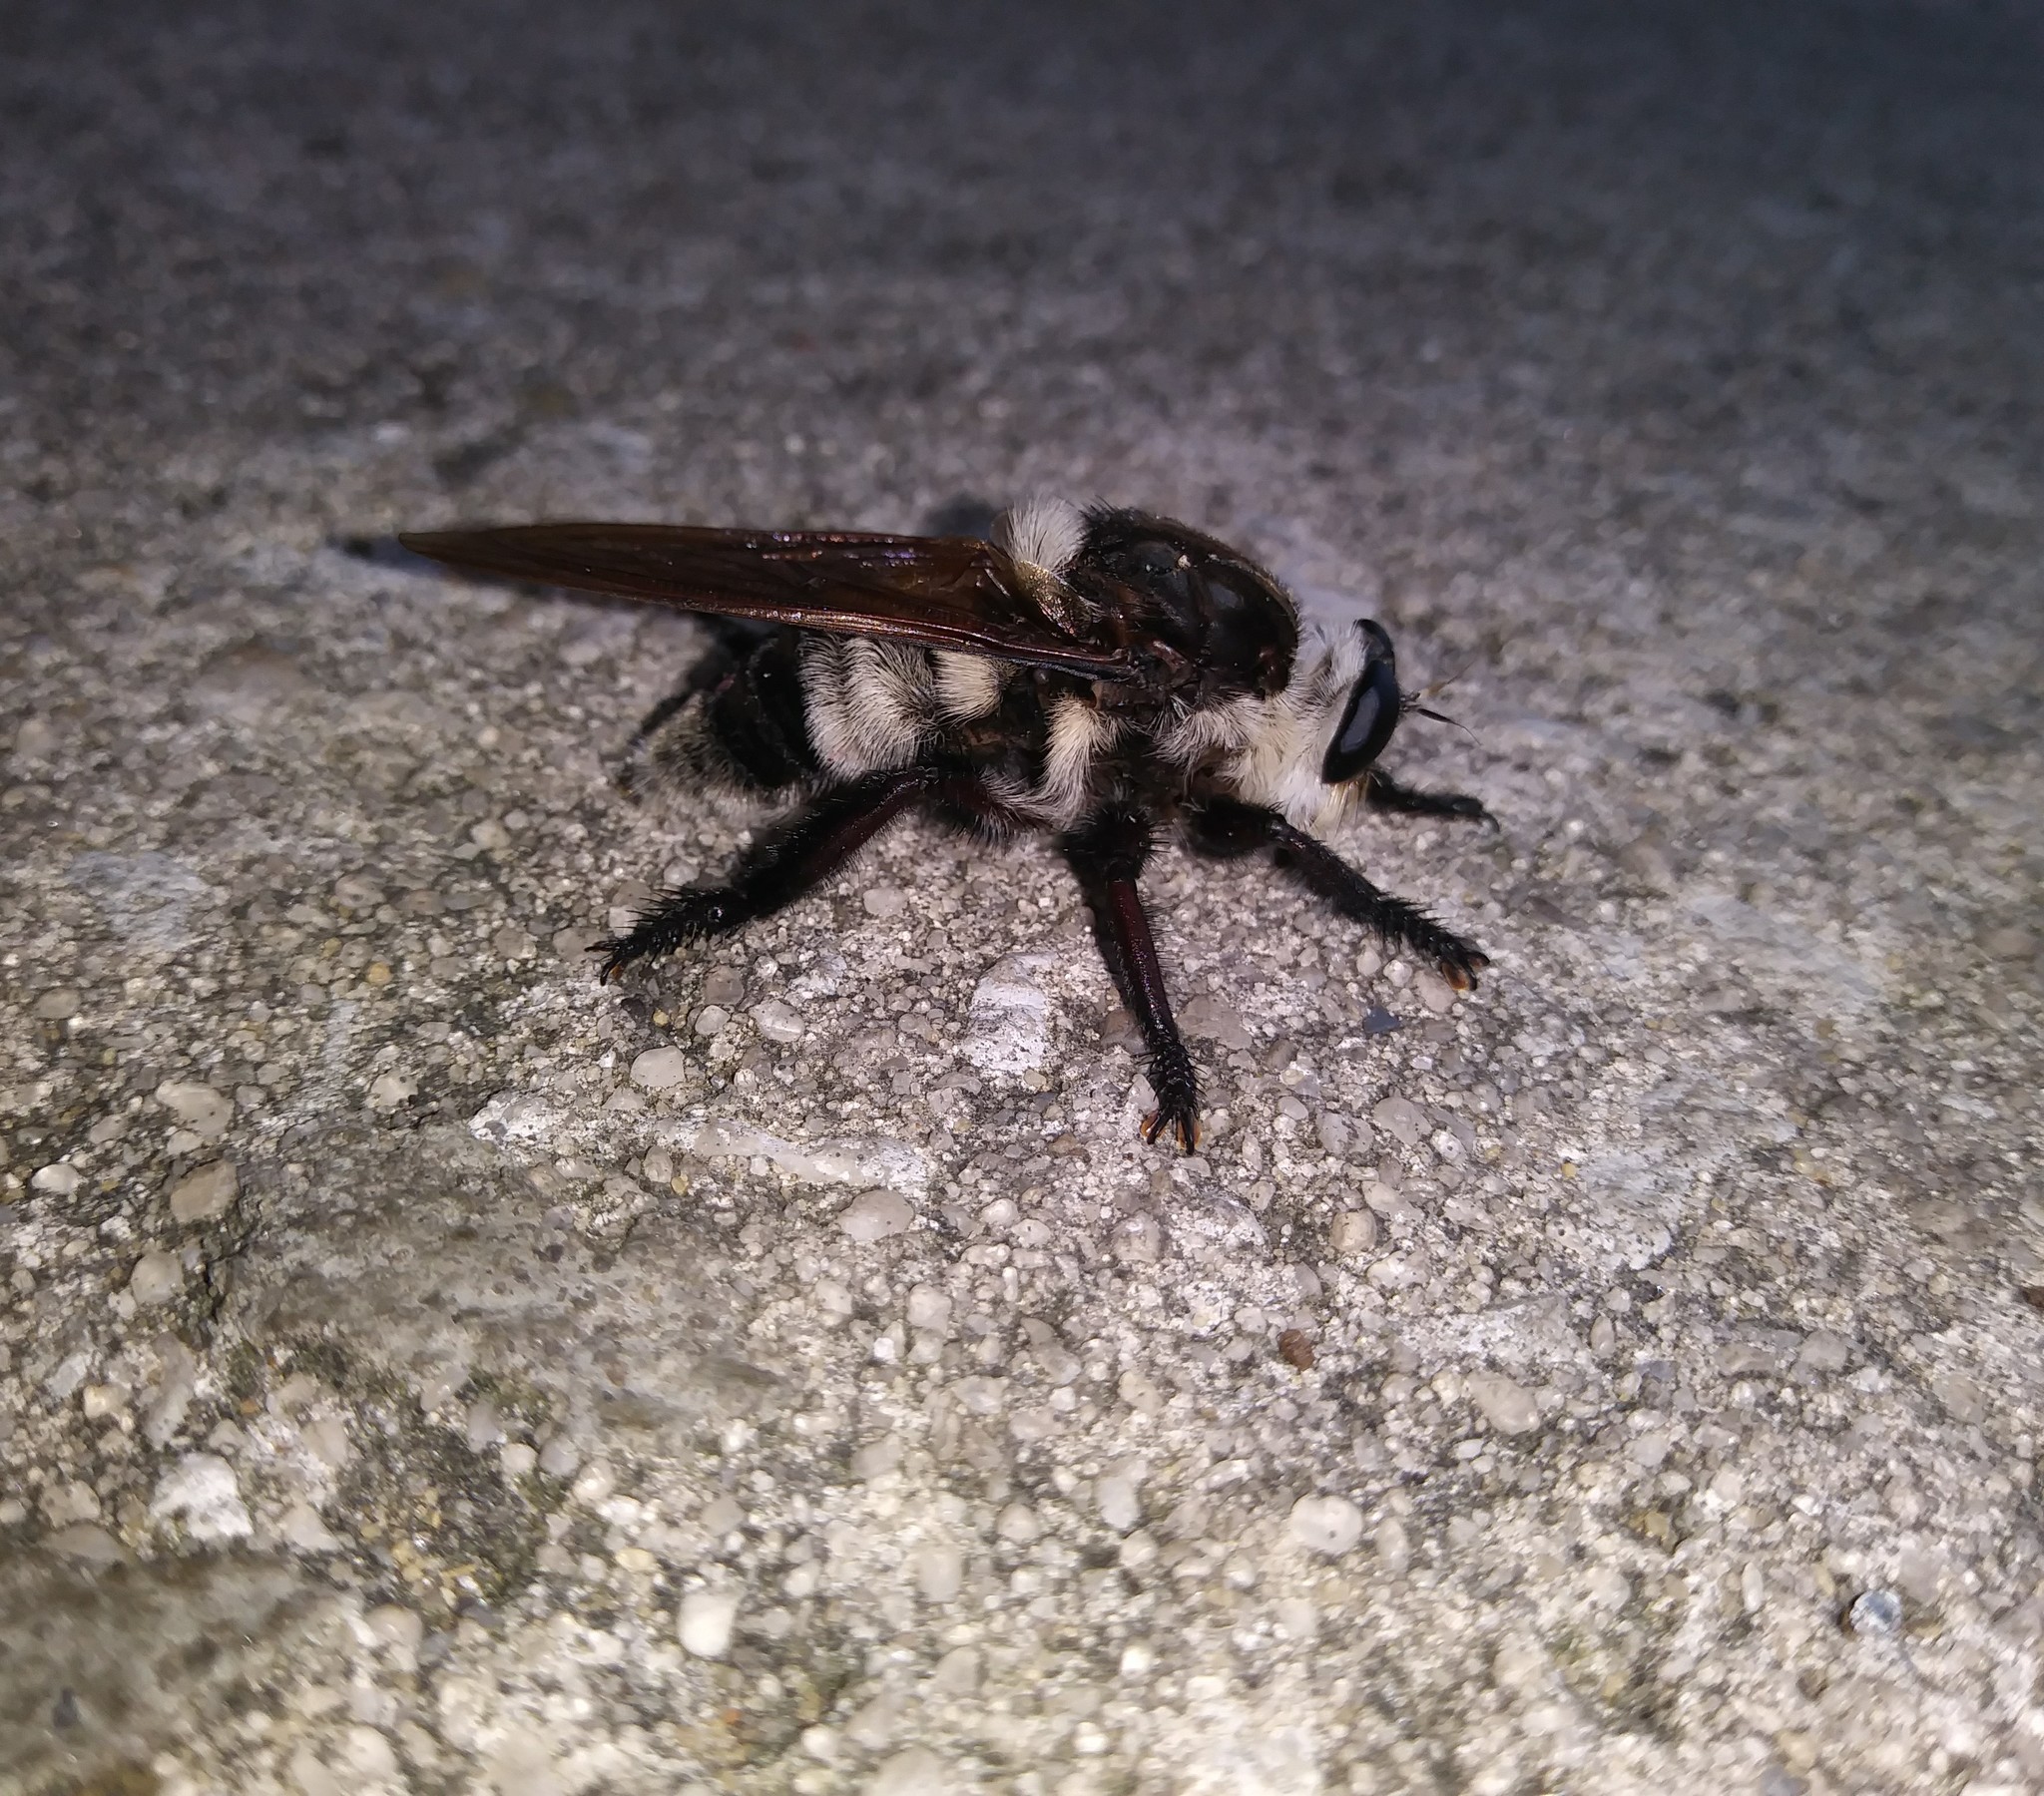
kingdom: Animalia
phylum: Arthropoda
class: Insecta
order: Diptera
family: Asilidae
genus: Mallophora
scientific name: Mallophora bomboides
